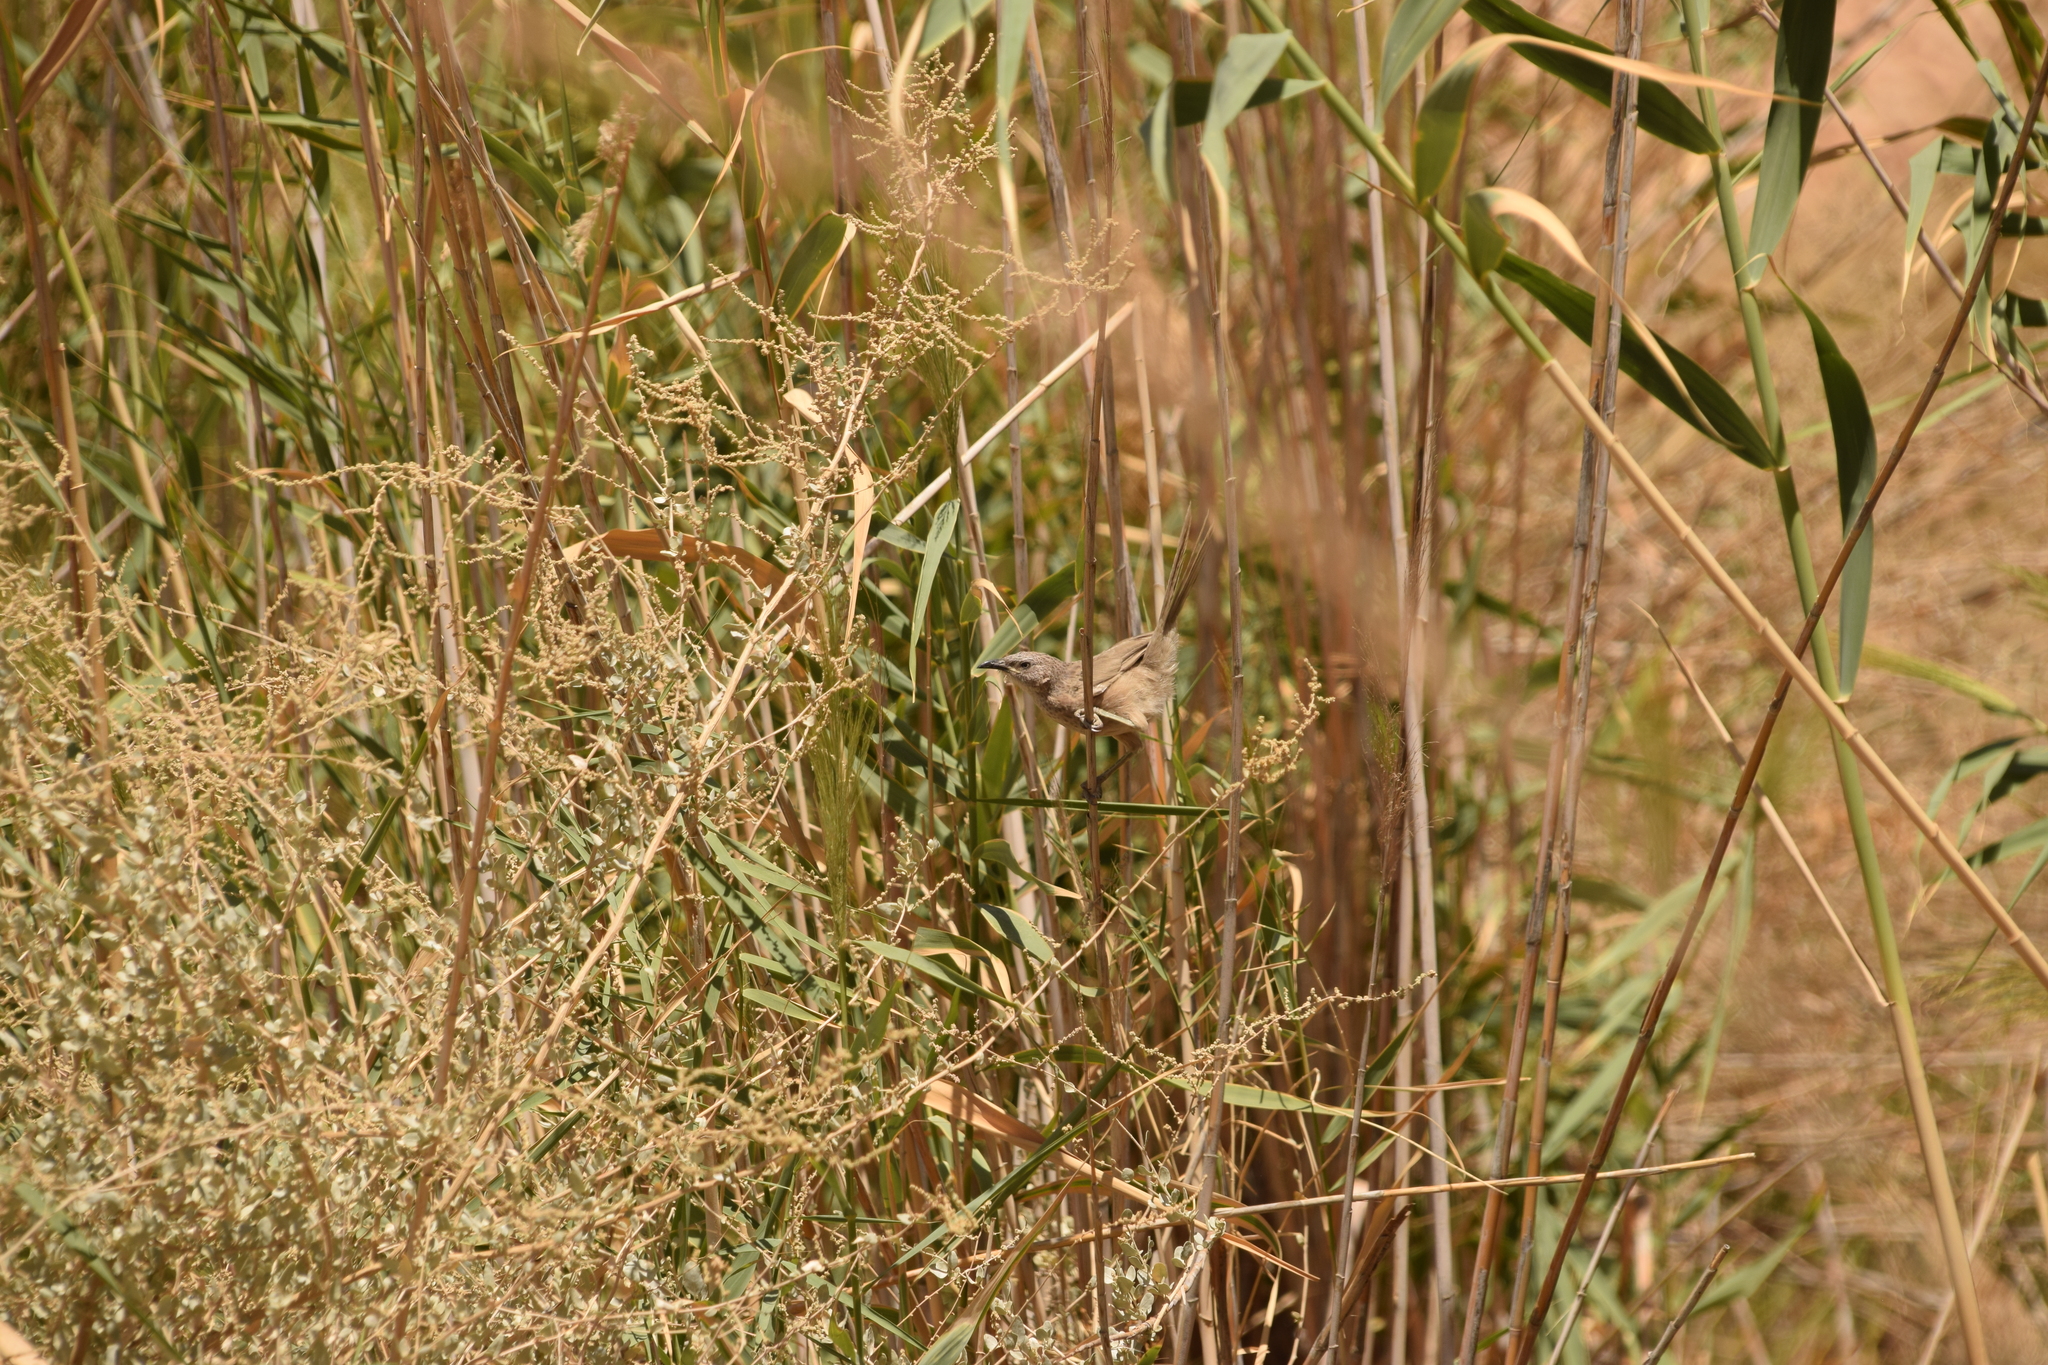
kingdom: Animalia
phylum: Chordata
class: Aves
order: Passeriformes
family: Leiothrichidae
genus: Turdoides
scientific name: Turdoides squamiceps
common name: Arabian babbler
